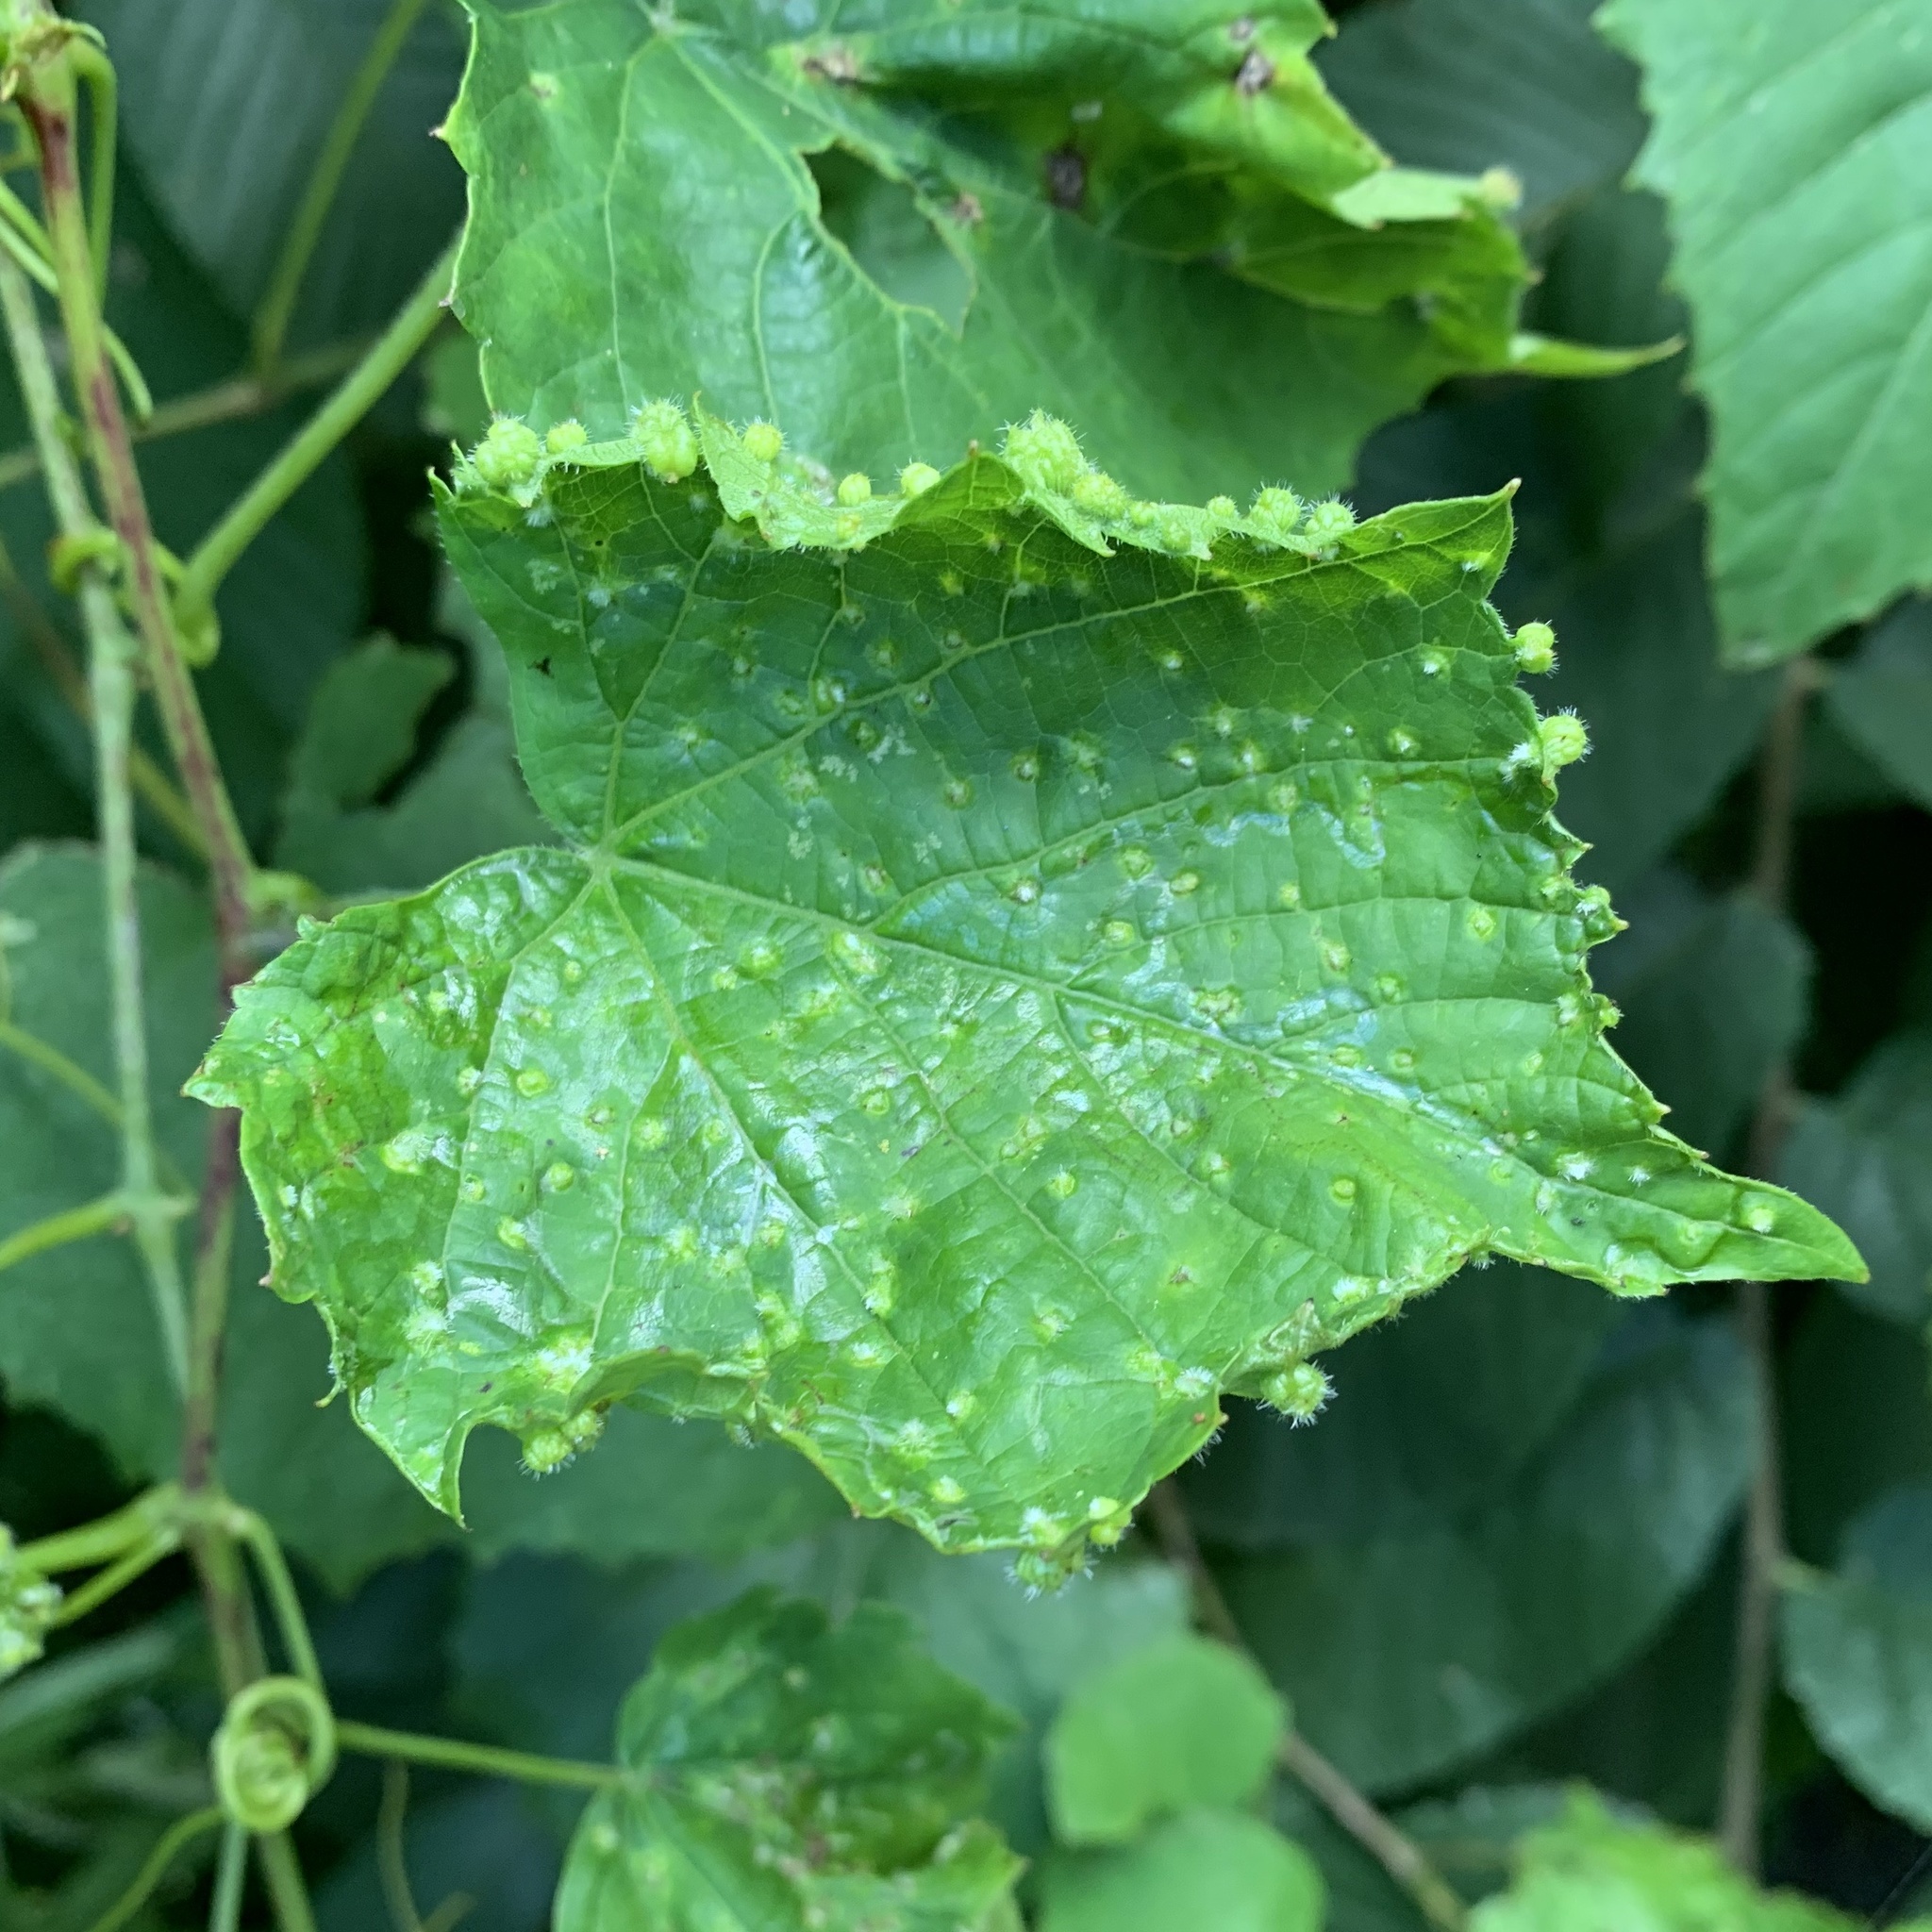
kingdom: Animalia
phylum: Arthropoda
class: Insecta
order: Hemiptera
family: Phylloxeridae
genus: Daktulosphaira
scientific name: Daktulosphaira vitifoliae
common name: Grape phylloxera
